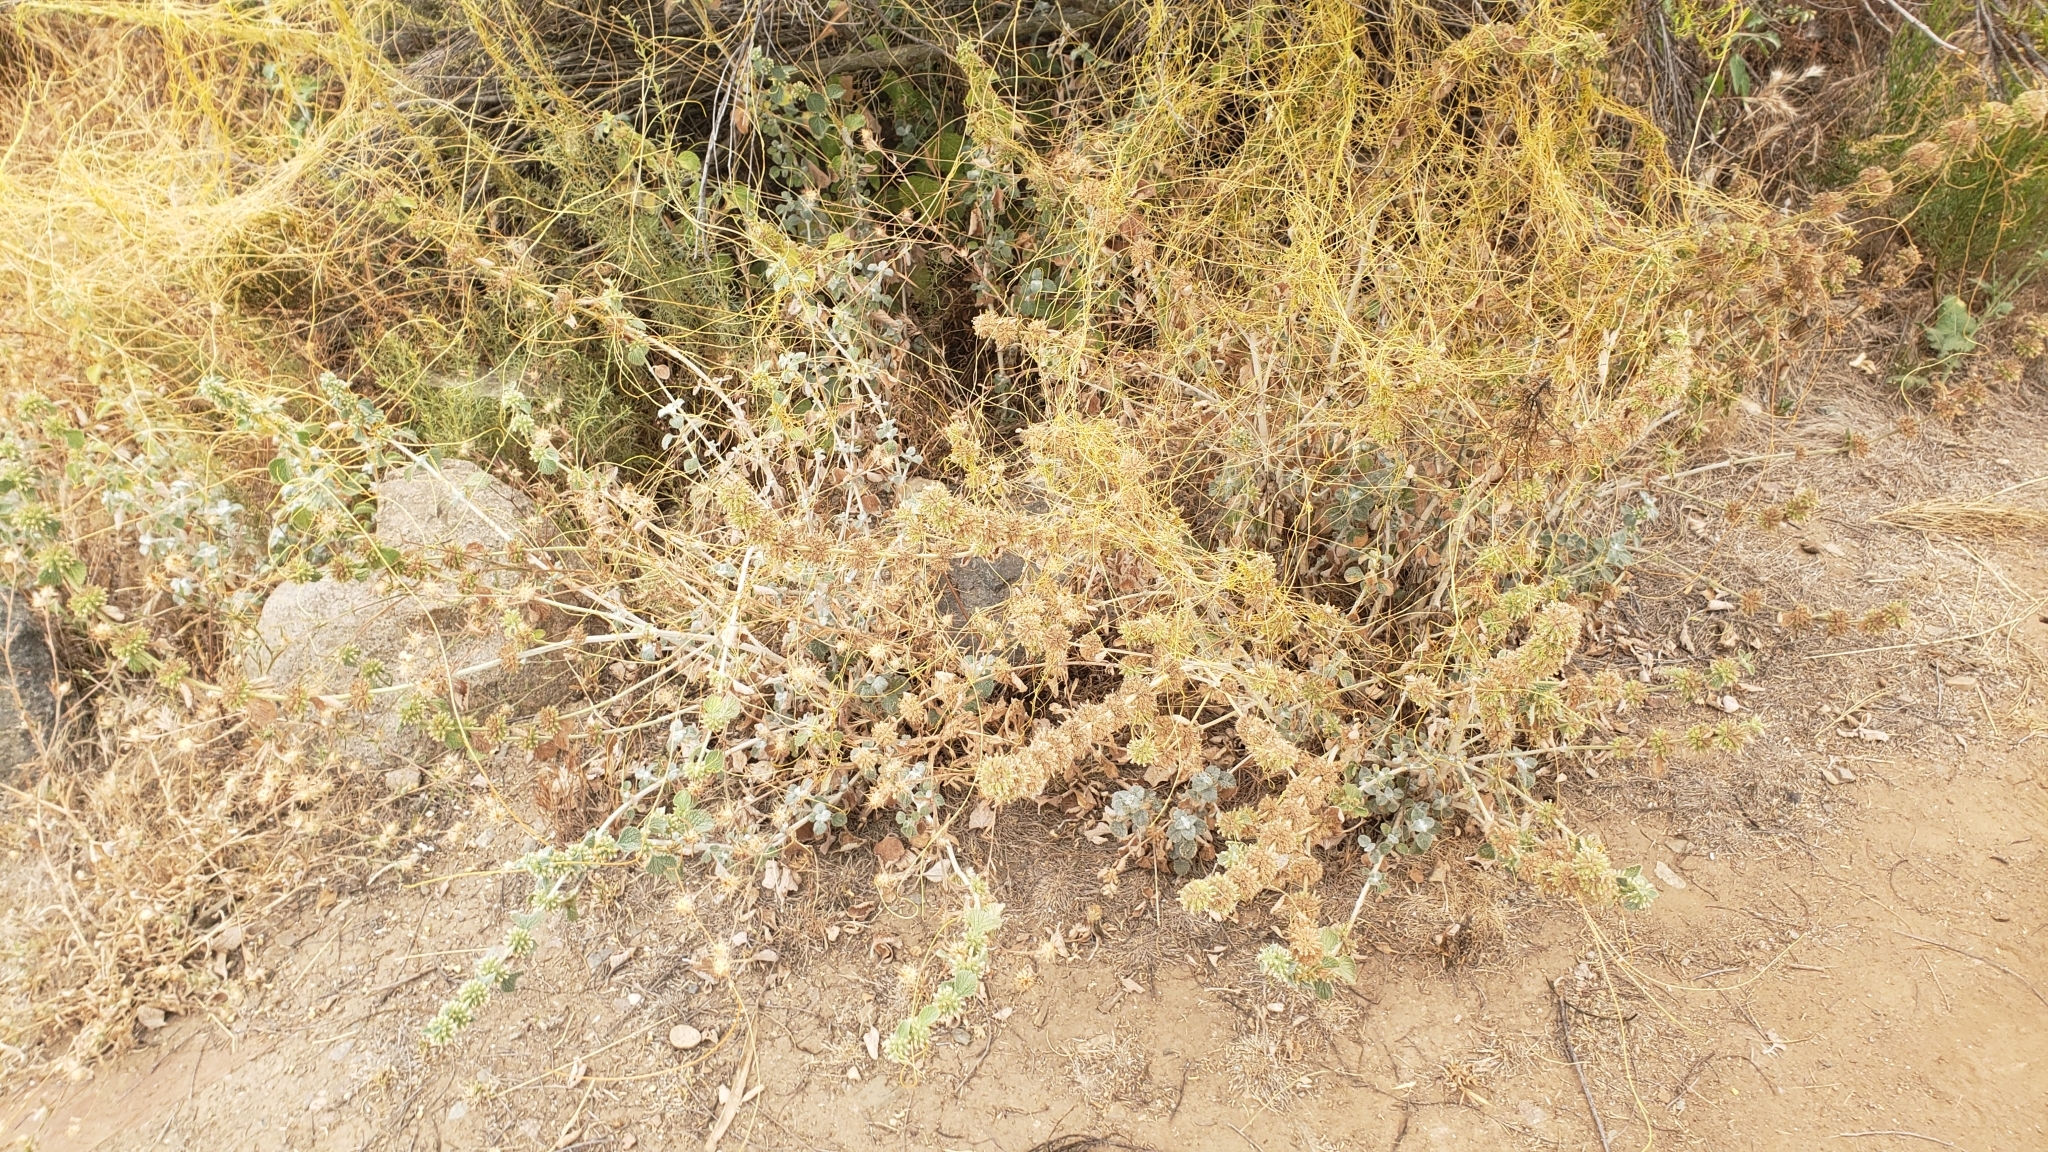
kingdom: Plantae
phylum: Tracheophyta
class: Magnoliopsida
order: Lamiales
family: Lamiaceae
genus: Marrubium
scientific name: Marrubium vulgare
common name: Horehound
